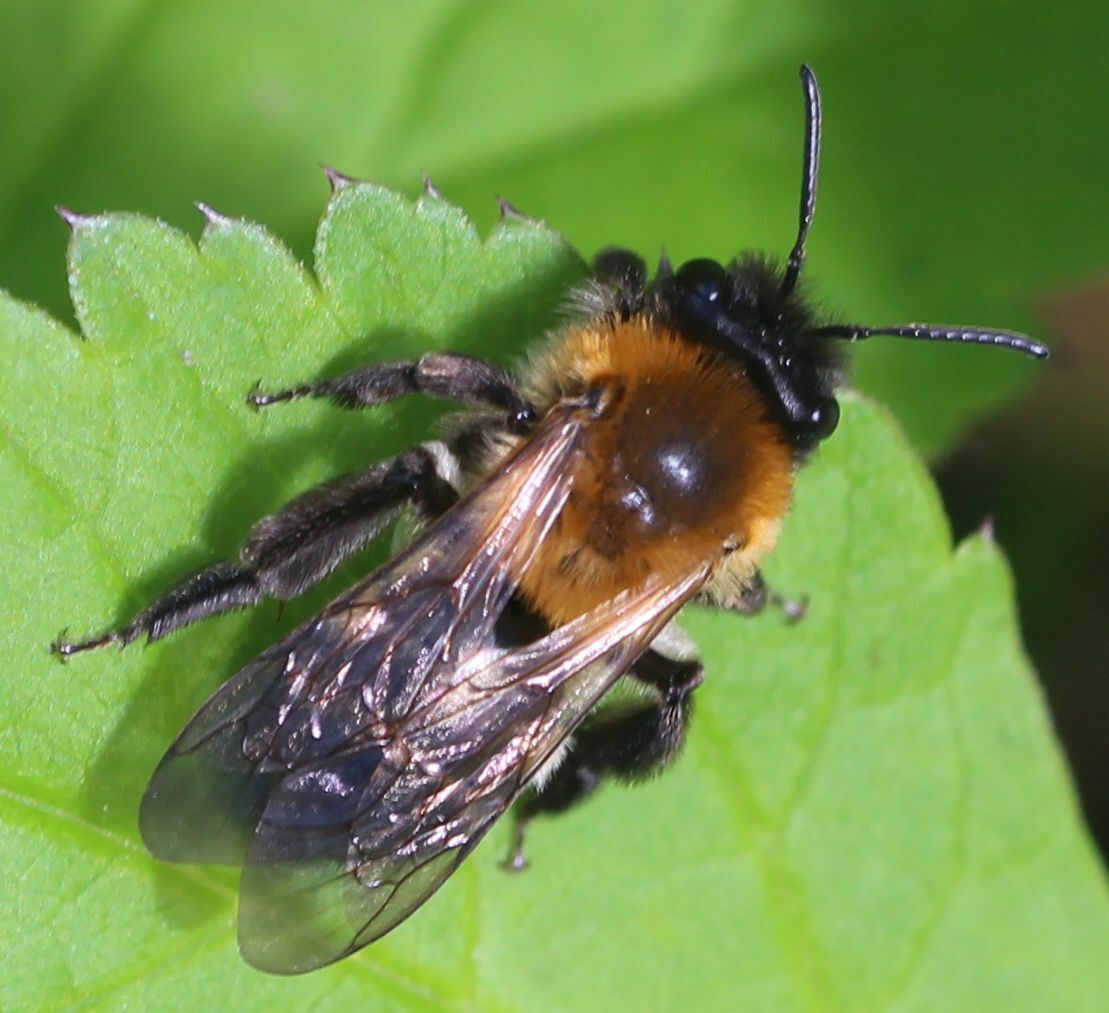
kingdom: Animalia
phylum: Arthropoda
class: Insecta
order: Hymenoptera
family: Andrenidae
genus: Andrena
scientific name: Andrena nitida
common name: Grey-patched mining bee
